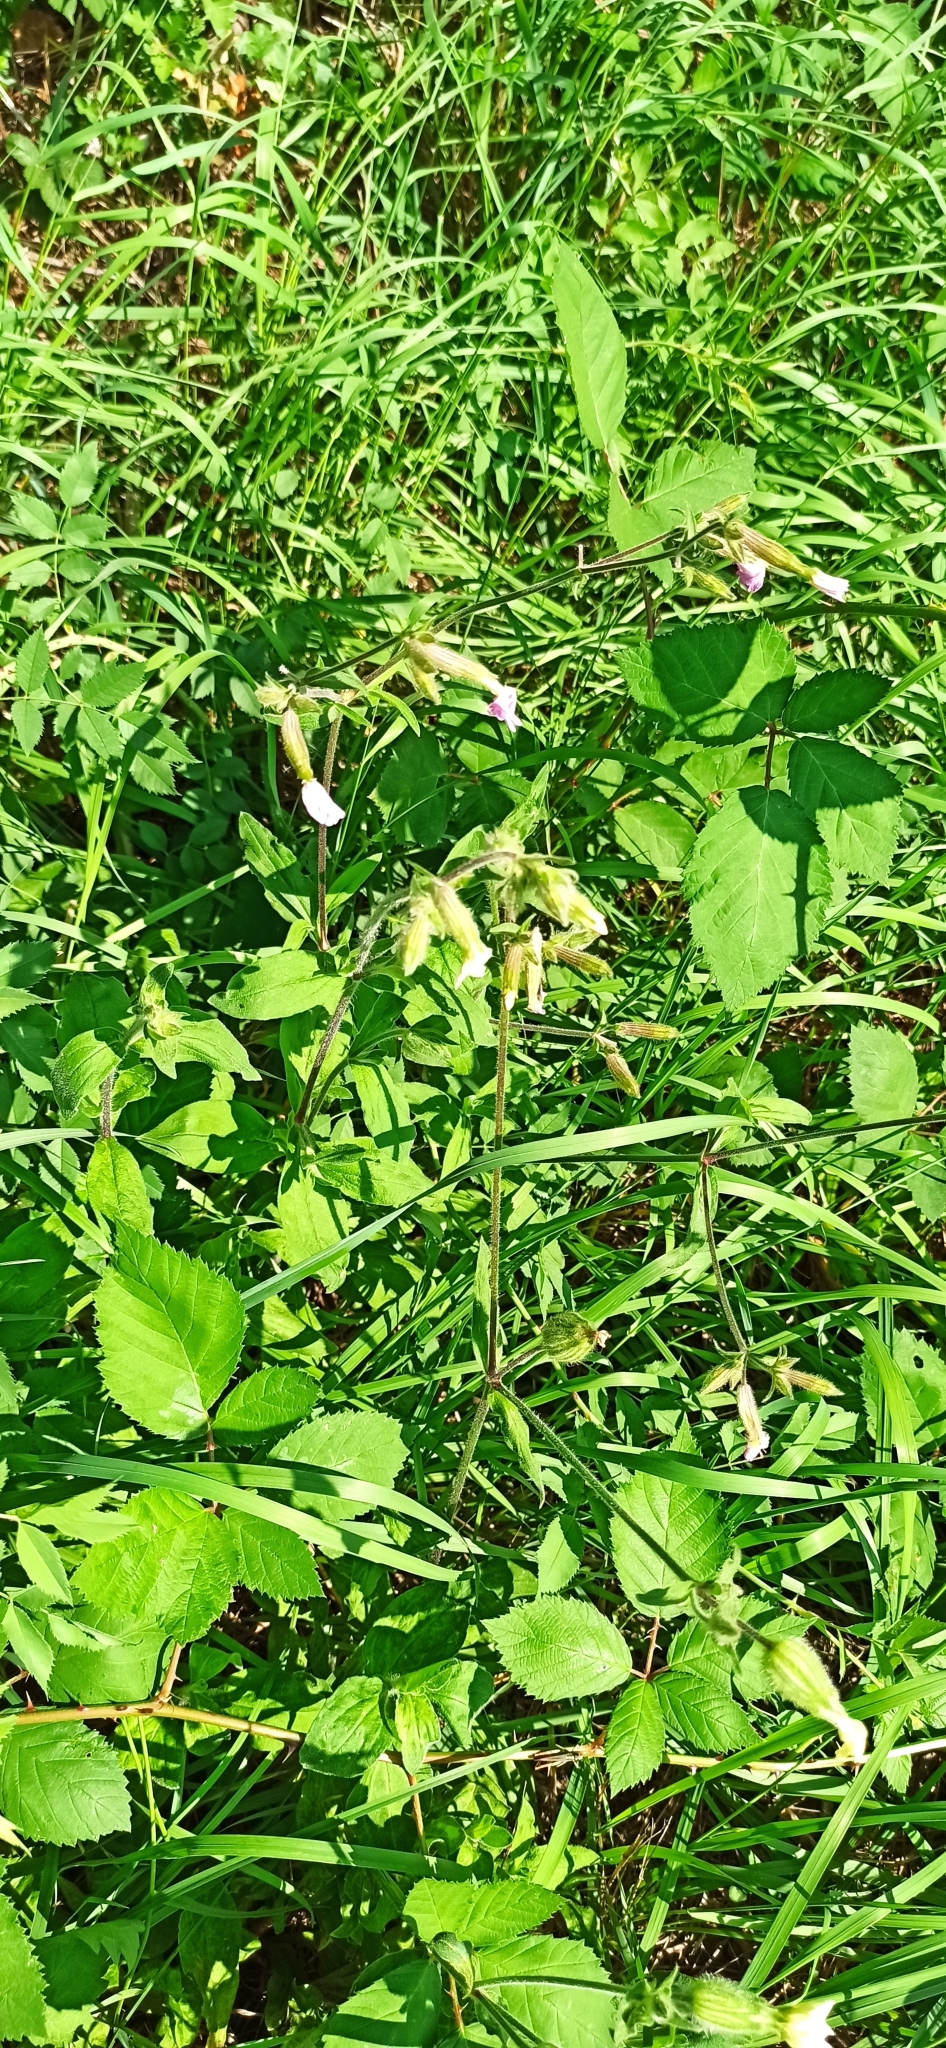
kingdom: Plantae
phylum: Tracheophyta
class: Magnoliopsida
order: Caryophyllales
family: Caryophyllaceae
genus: Silene
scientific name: Silene latifolia
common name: White campion
